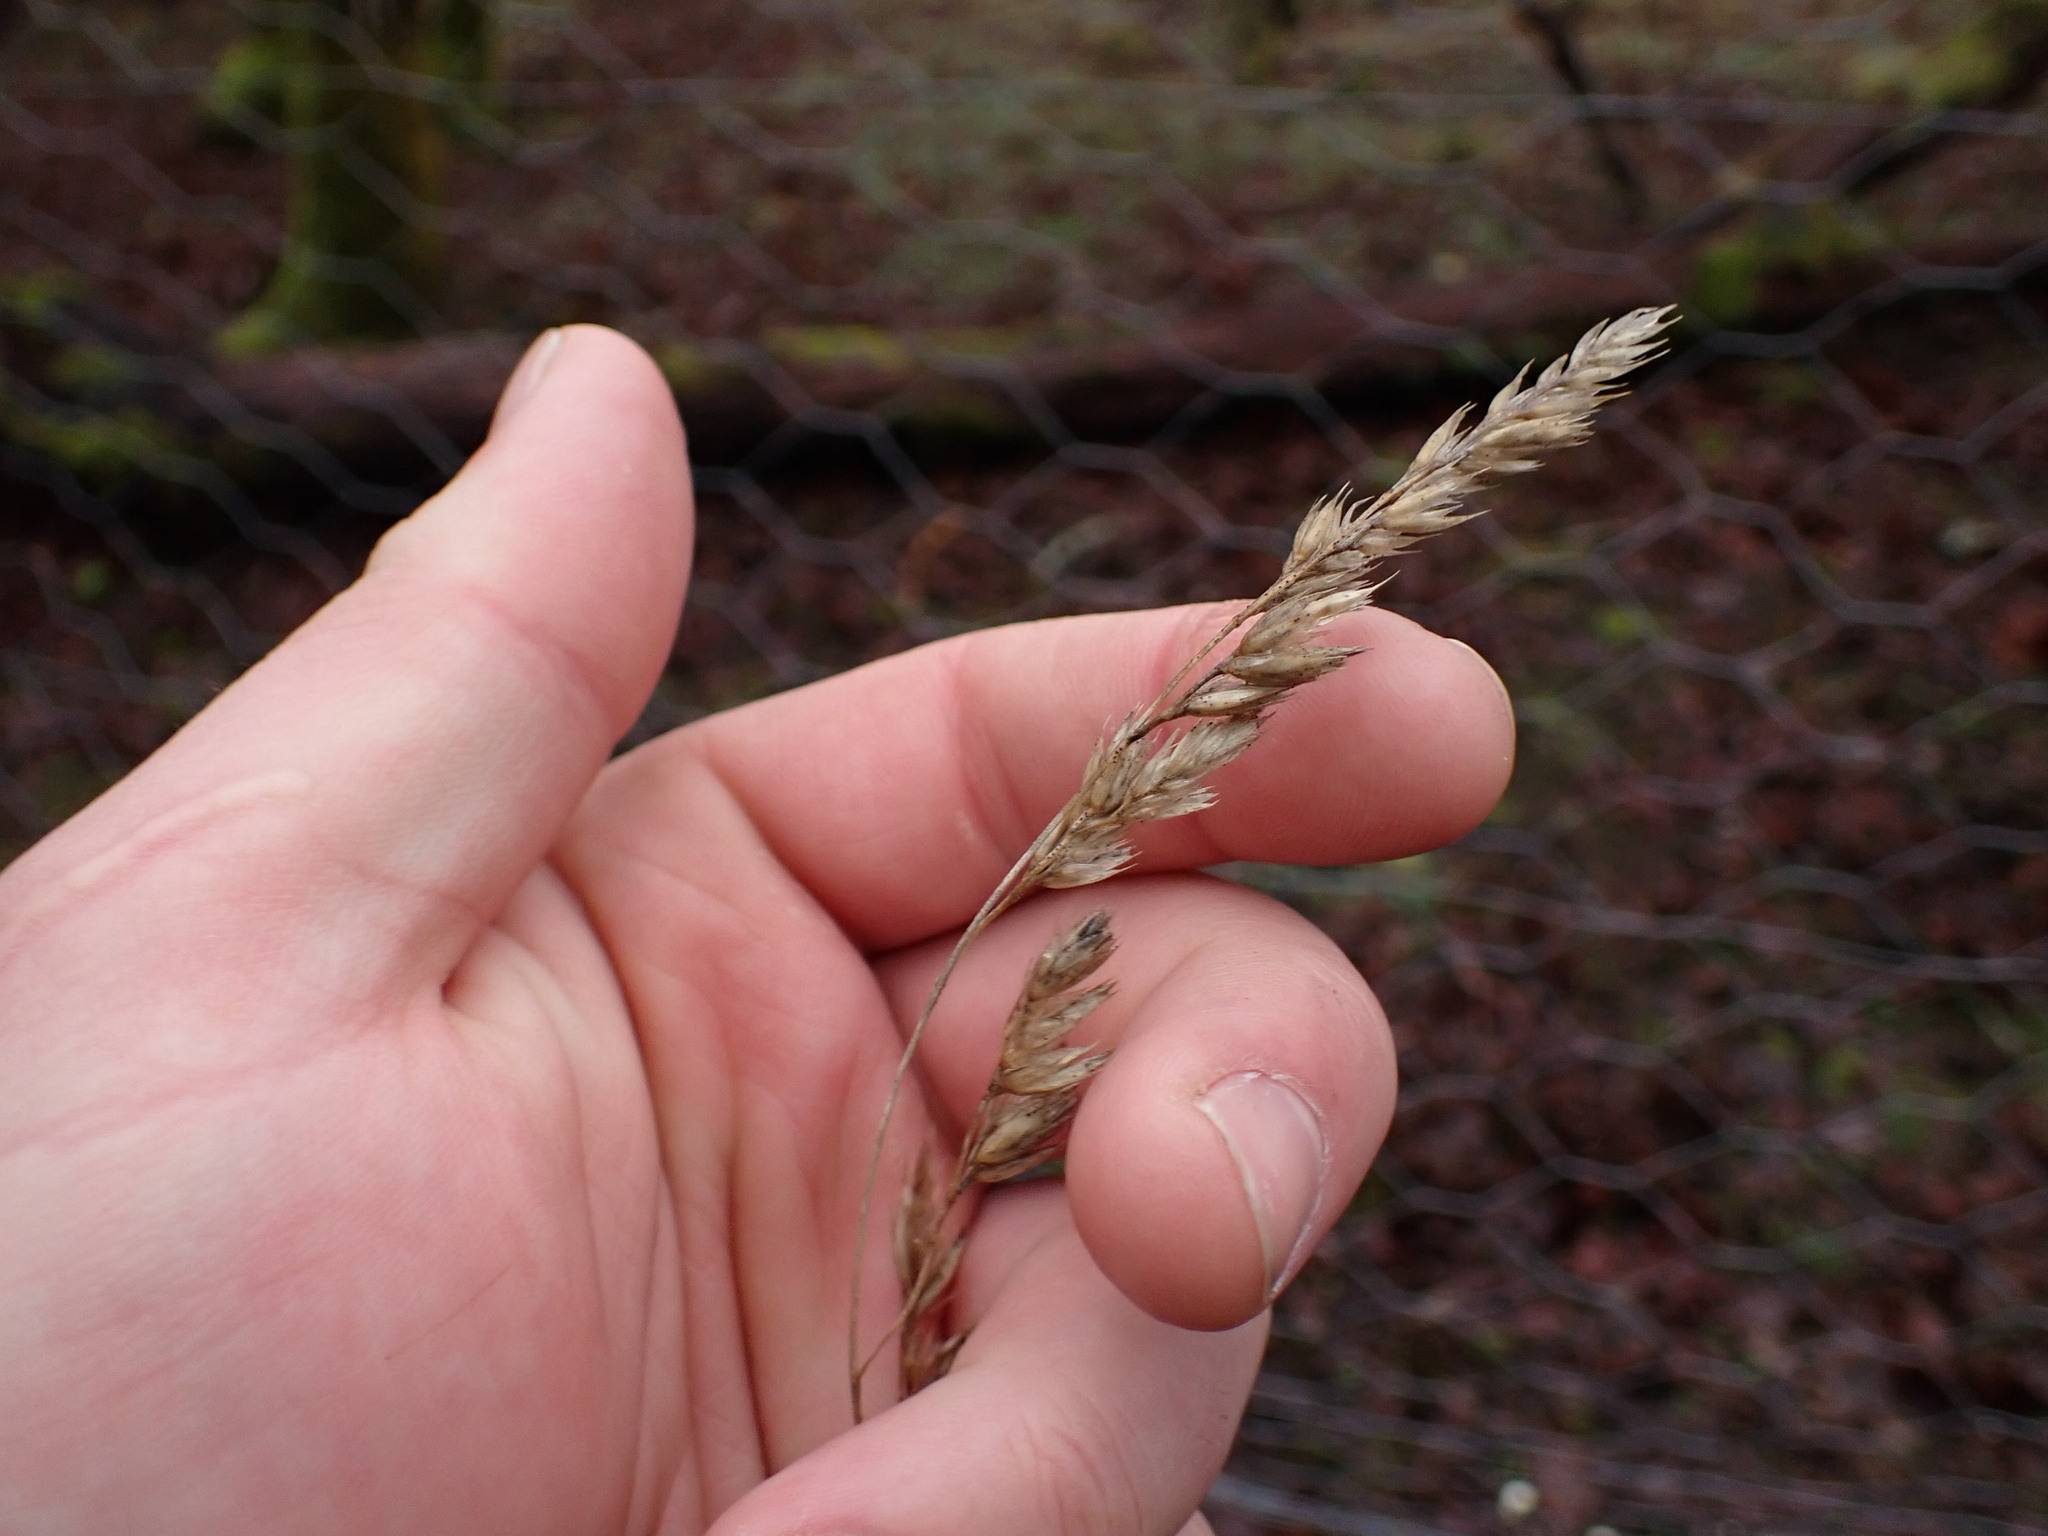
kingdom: Plantae
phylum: Tracheophyta
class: Liliopsida
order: Poales
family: Poaceae
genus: Dactylis
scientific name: Dactylis glomerata
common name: Orchardgrass
